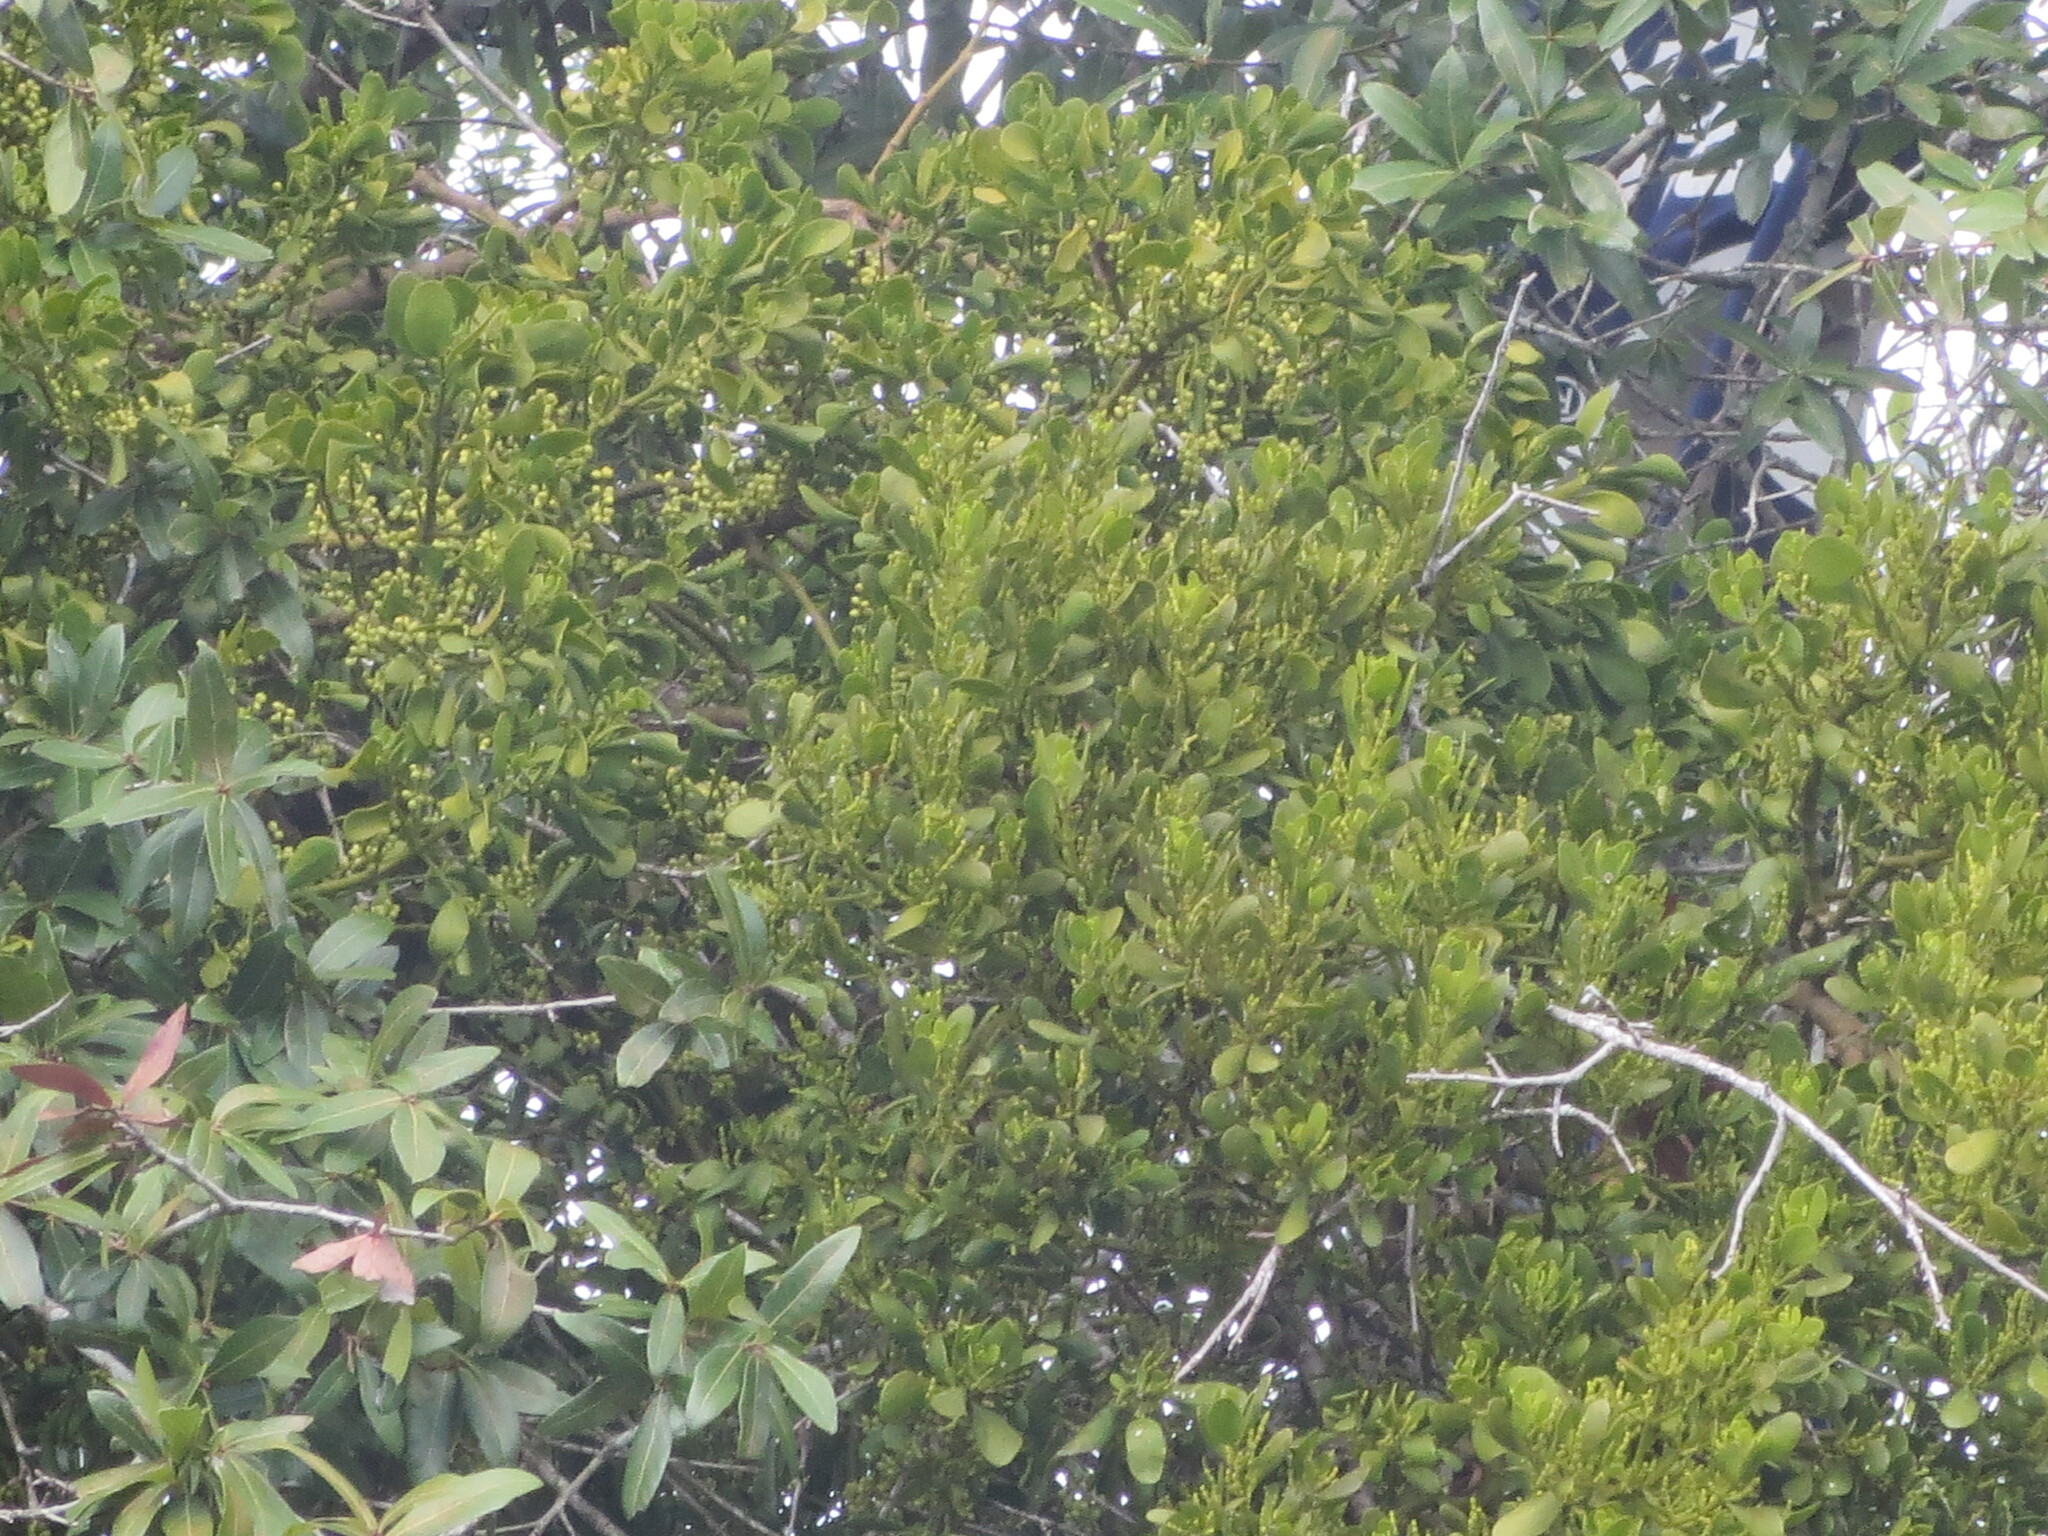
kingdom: Plantae
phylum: Tracheophyta
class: Magnoliopsida
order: Santalales
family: Viscaceae
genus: Phoradendron
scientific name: Phoradendron leucarpum
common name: Pacific mistletoe
